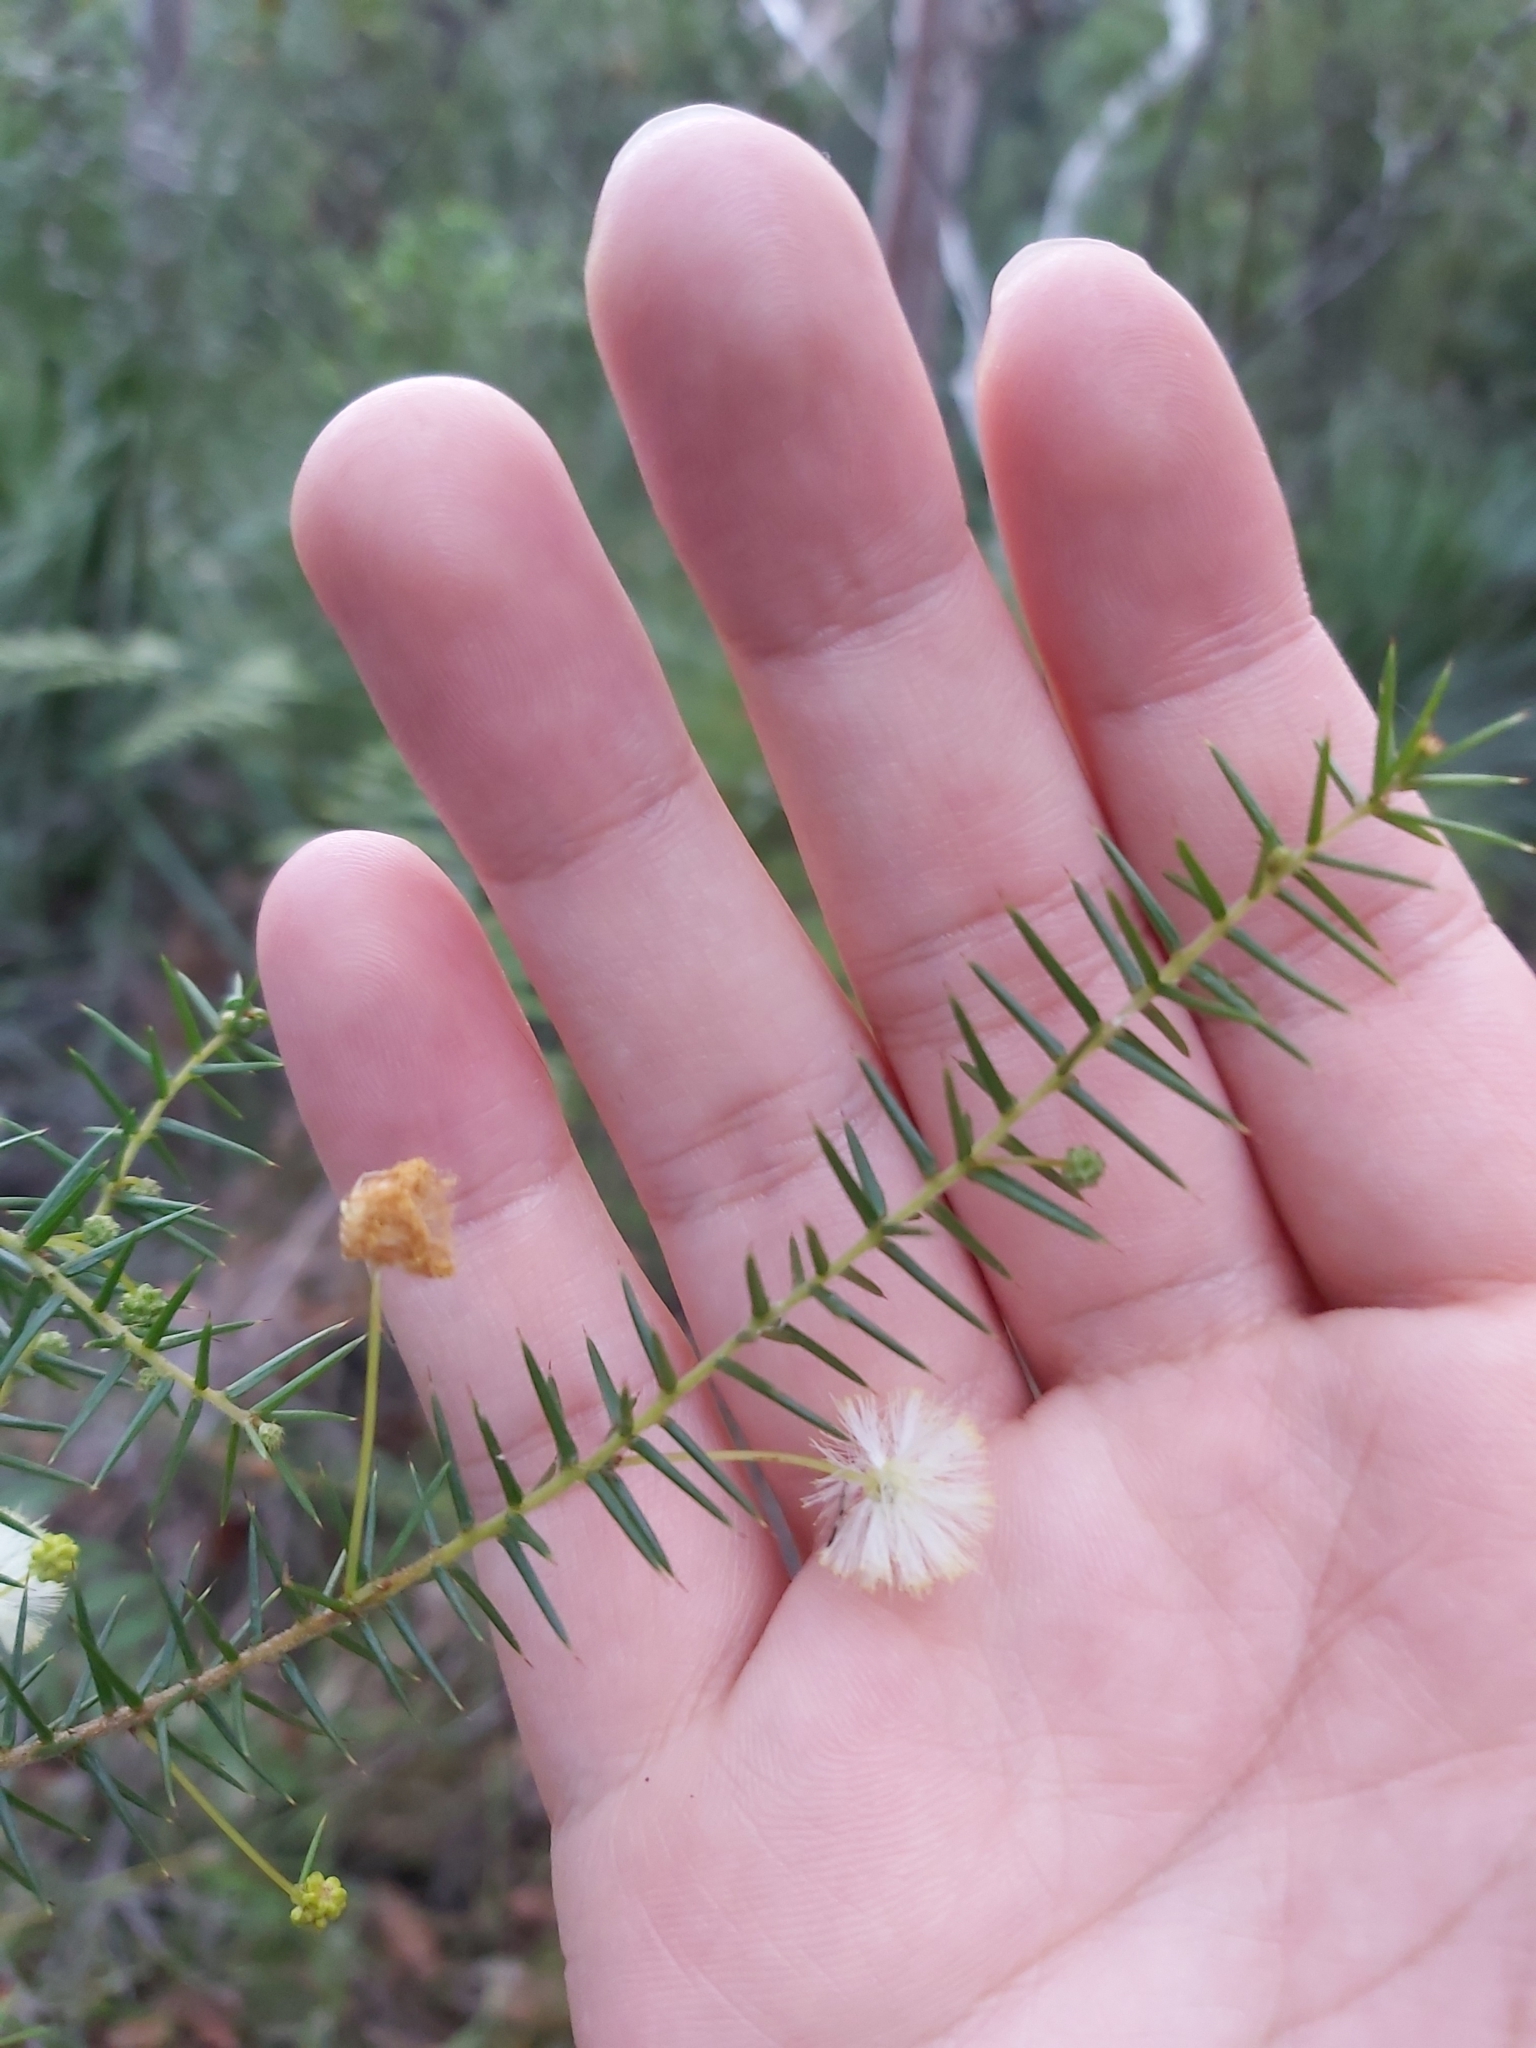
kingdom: Plantae
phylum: Tracheophyta
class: Magnoliopsida
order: Fabales
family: Fabaceae
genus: Acacia
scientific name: Acacia ulicifolia
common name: Juniper wattle
